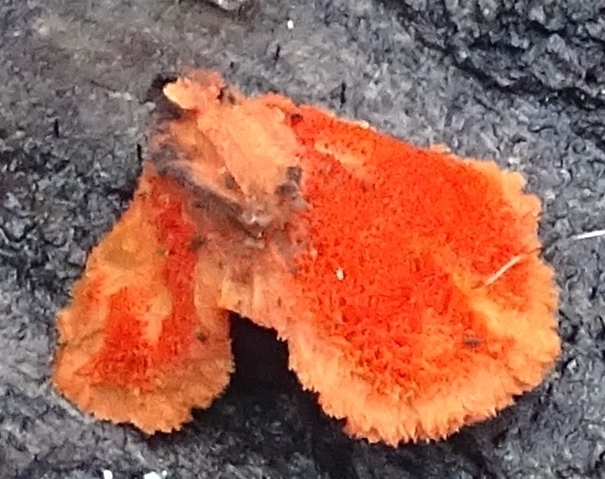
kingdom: Fungi
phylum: Basidiomycota
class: Agaricomycetes
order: Polyporales
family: Polyporaceae
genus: Trametes
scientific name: Trametes cinnabarina
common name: Northern cinnabar polypore
